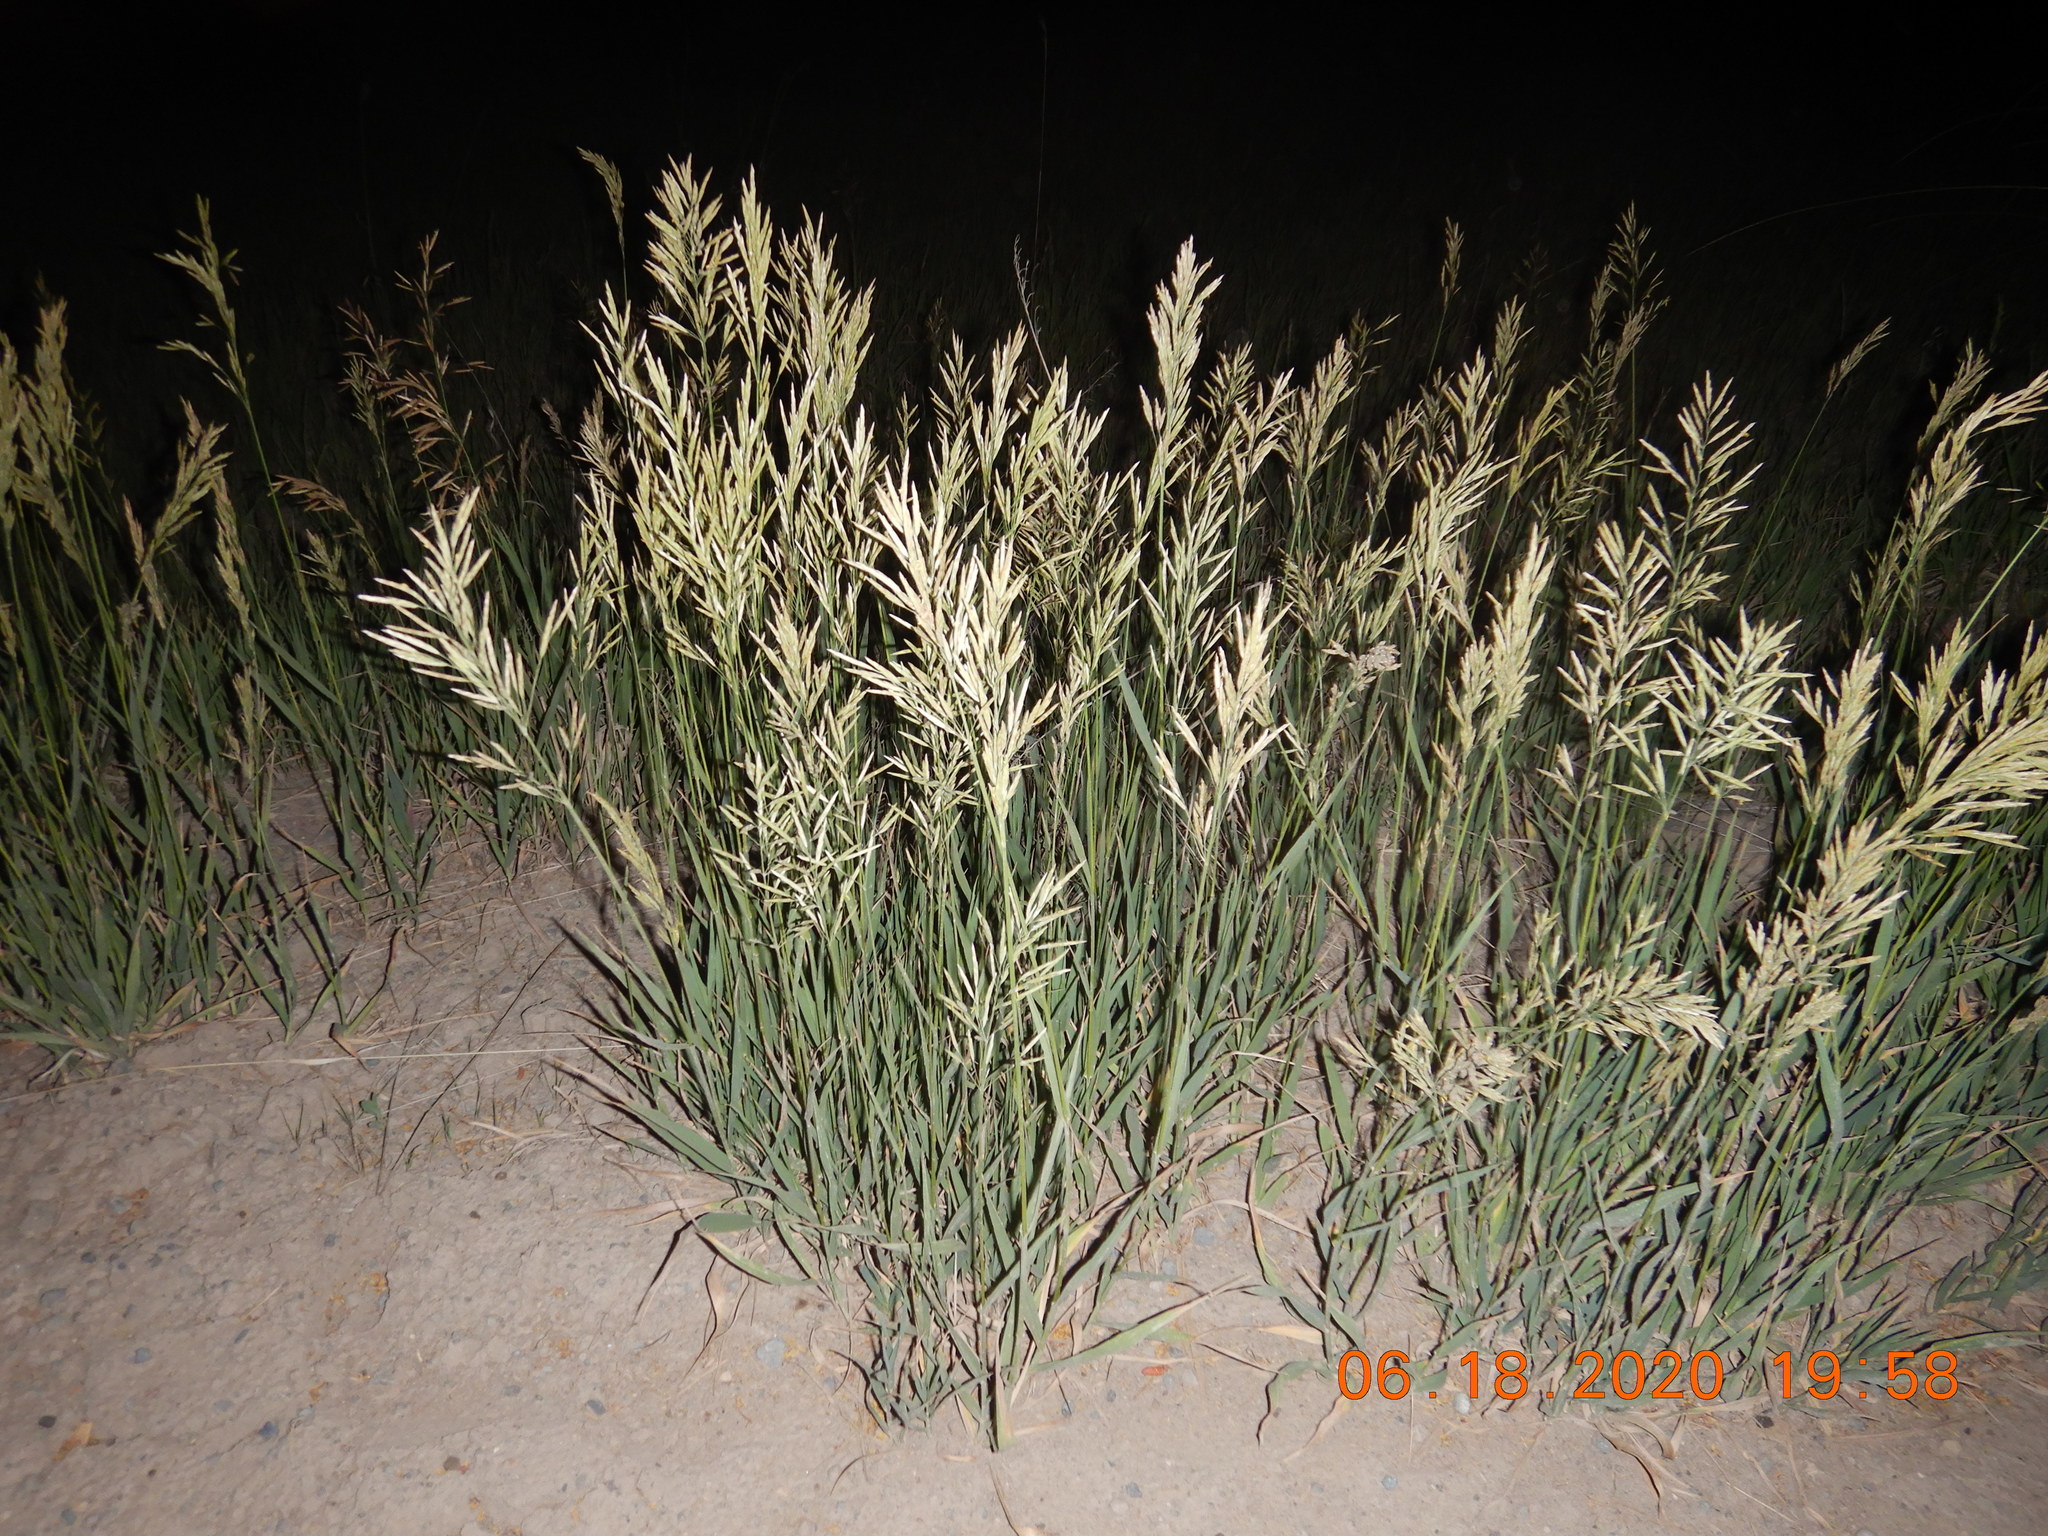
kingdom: Plantae
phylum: Tracheophyta
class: Liliopsida
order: Poales
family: Poaceae
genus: Bromus
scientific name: Bromus inermis
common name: Smooth brome
